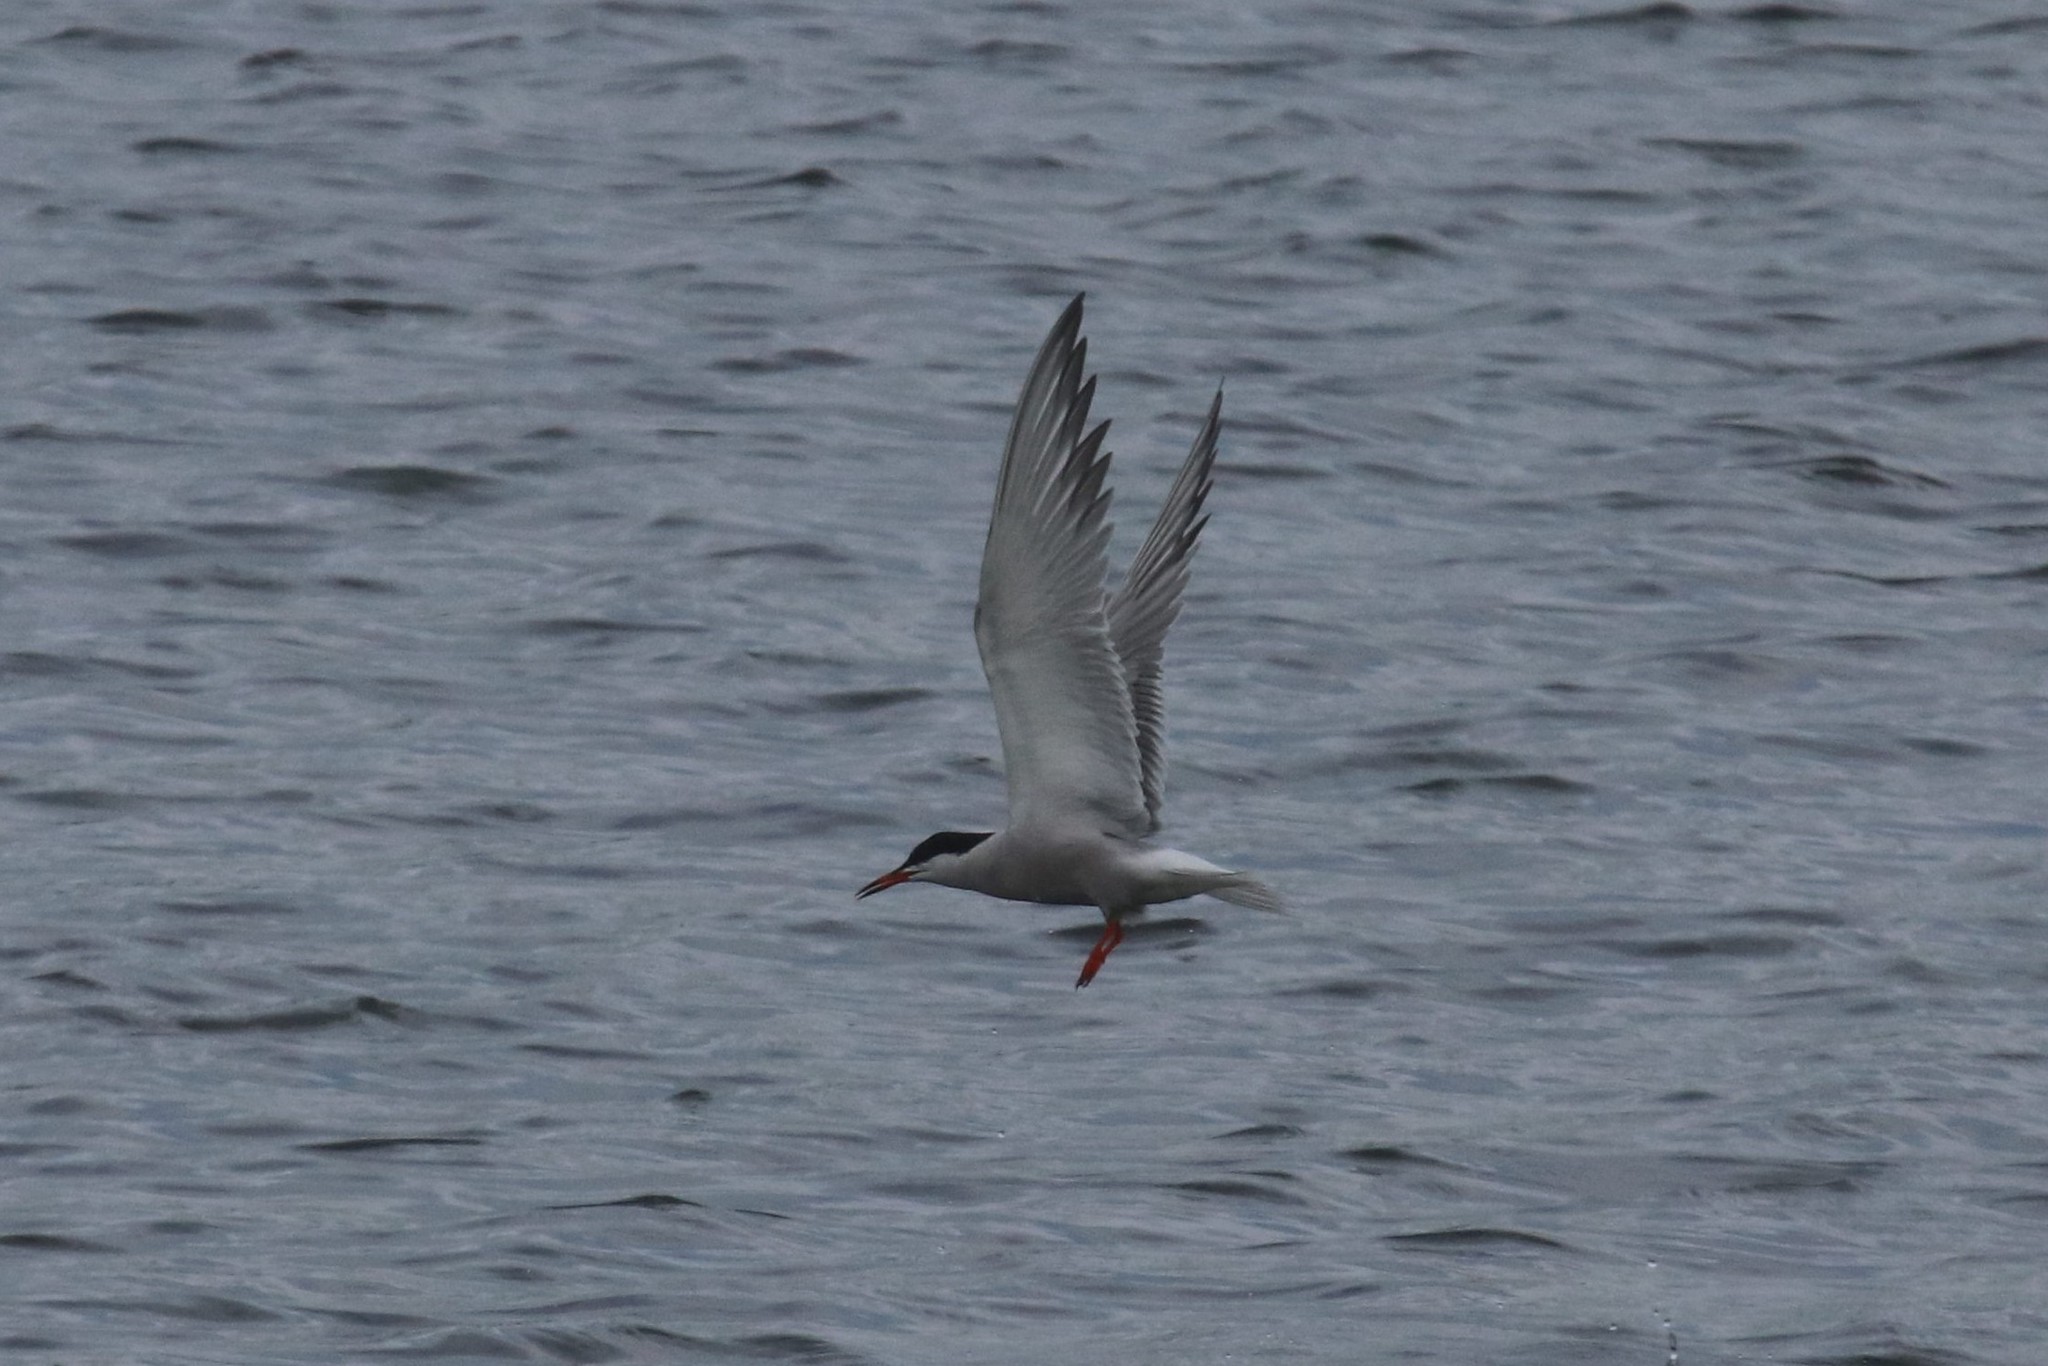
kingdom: Animalia
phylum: Chordata
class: Aves
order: Charadriiformes
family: Laridae
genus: Sterna
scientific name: Sterna hirundo
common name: Common tern
